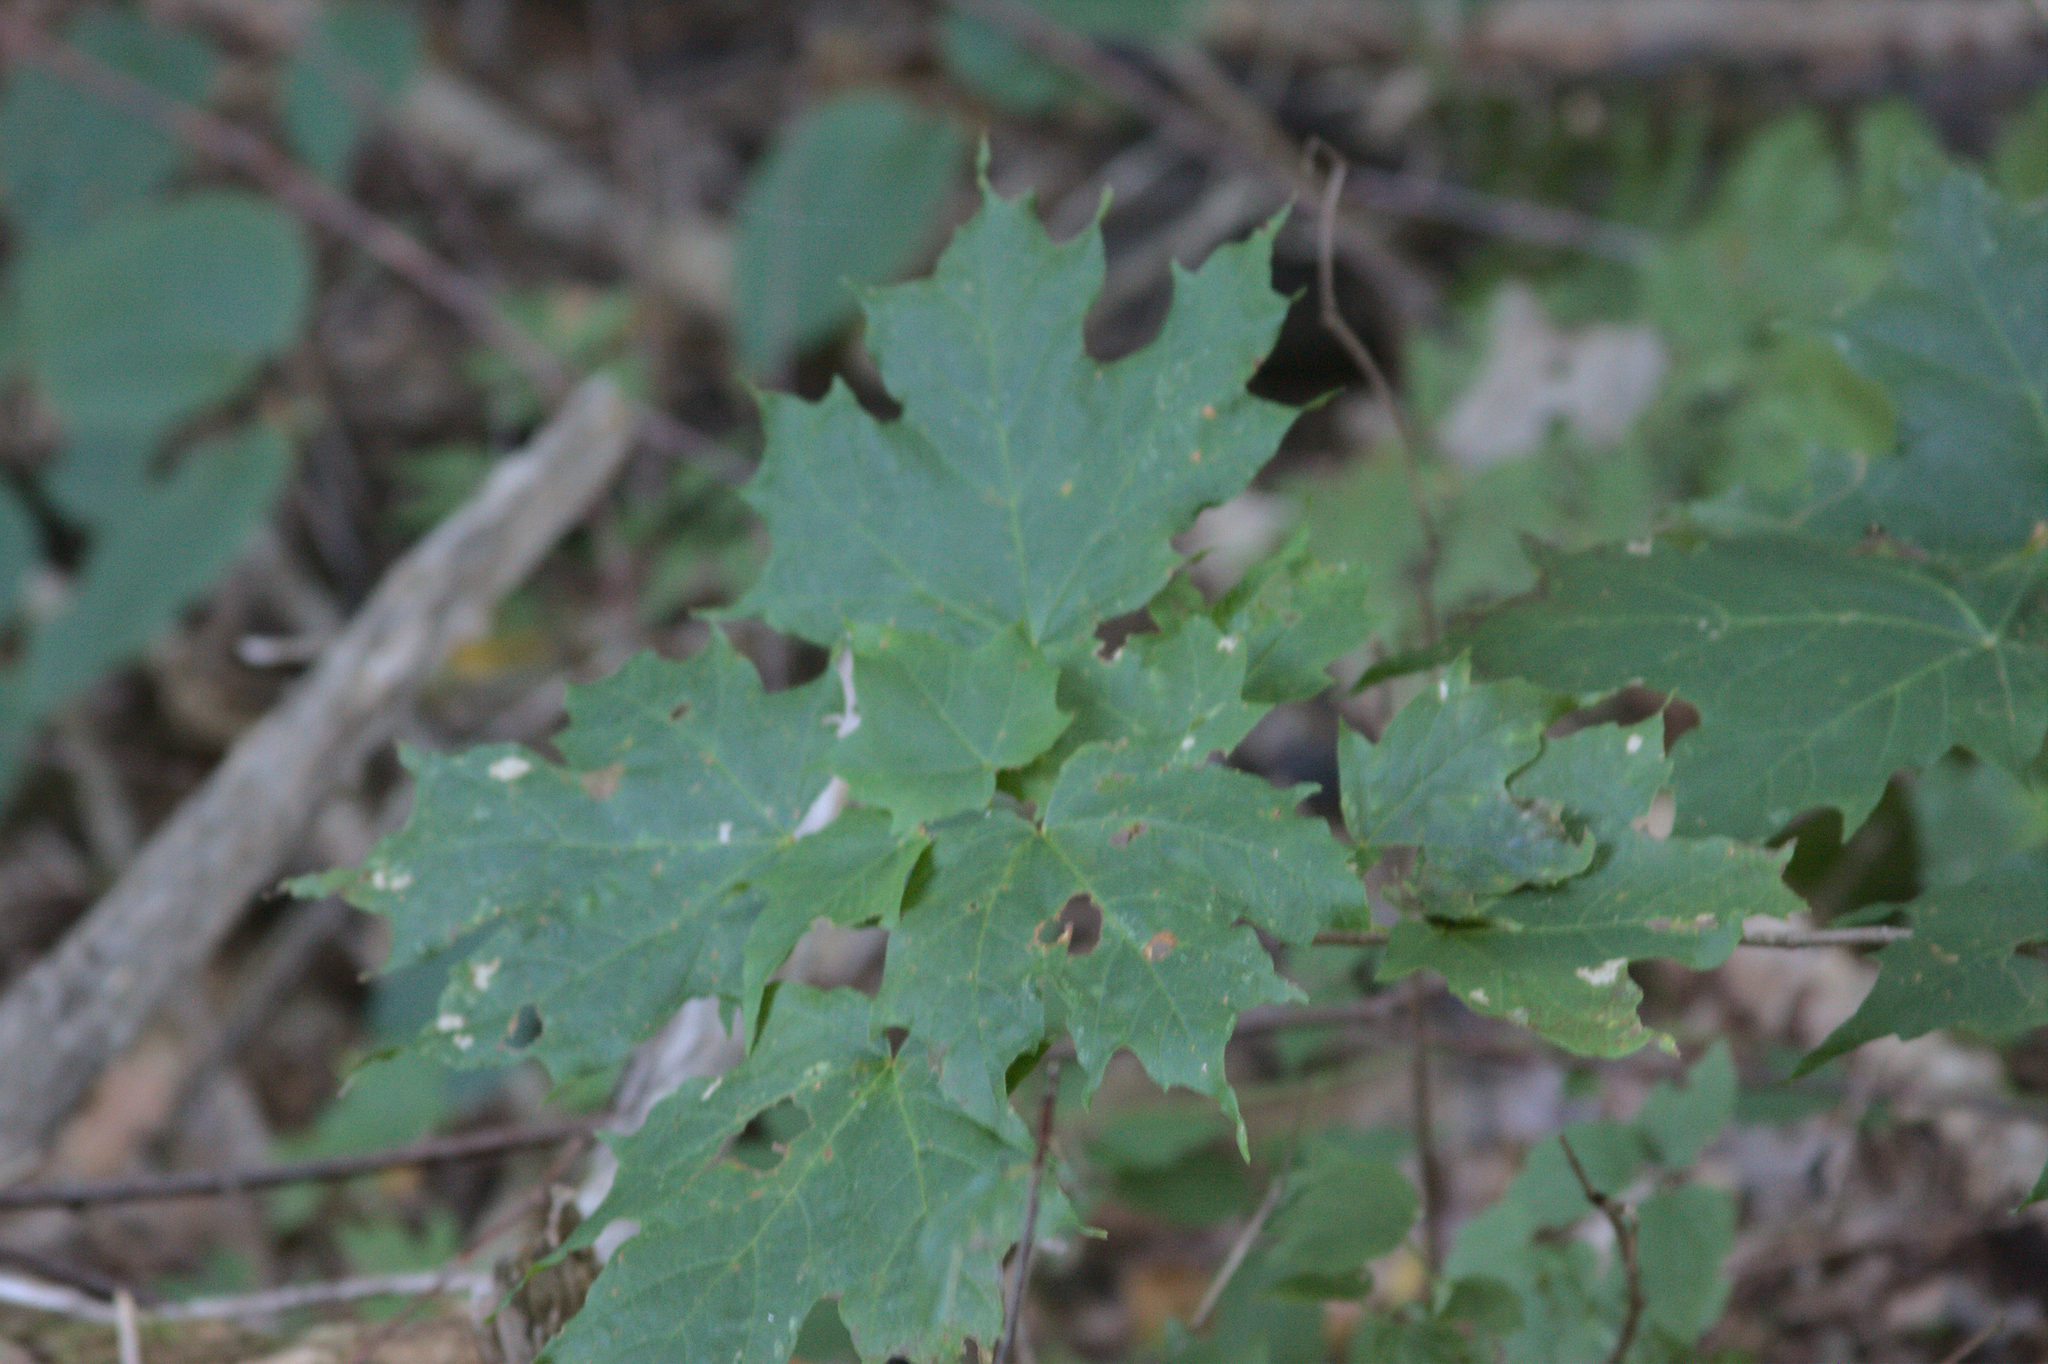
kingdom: Plantae
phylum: Tracheophyta
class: Magnoliopsida
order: Sapindales
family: Sapindaceae
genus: Acer
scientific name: Acer saccharum
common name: Sugar maple
